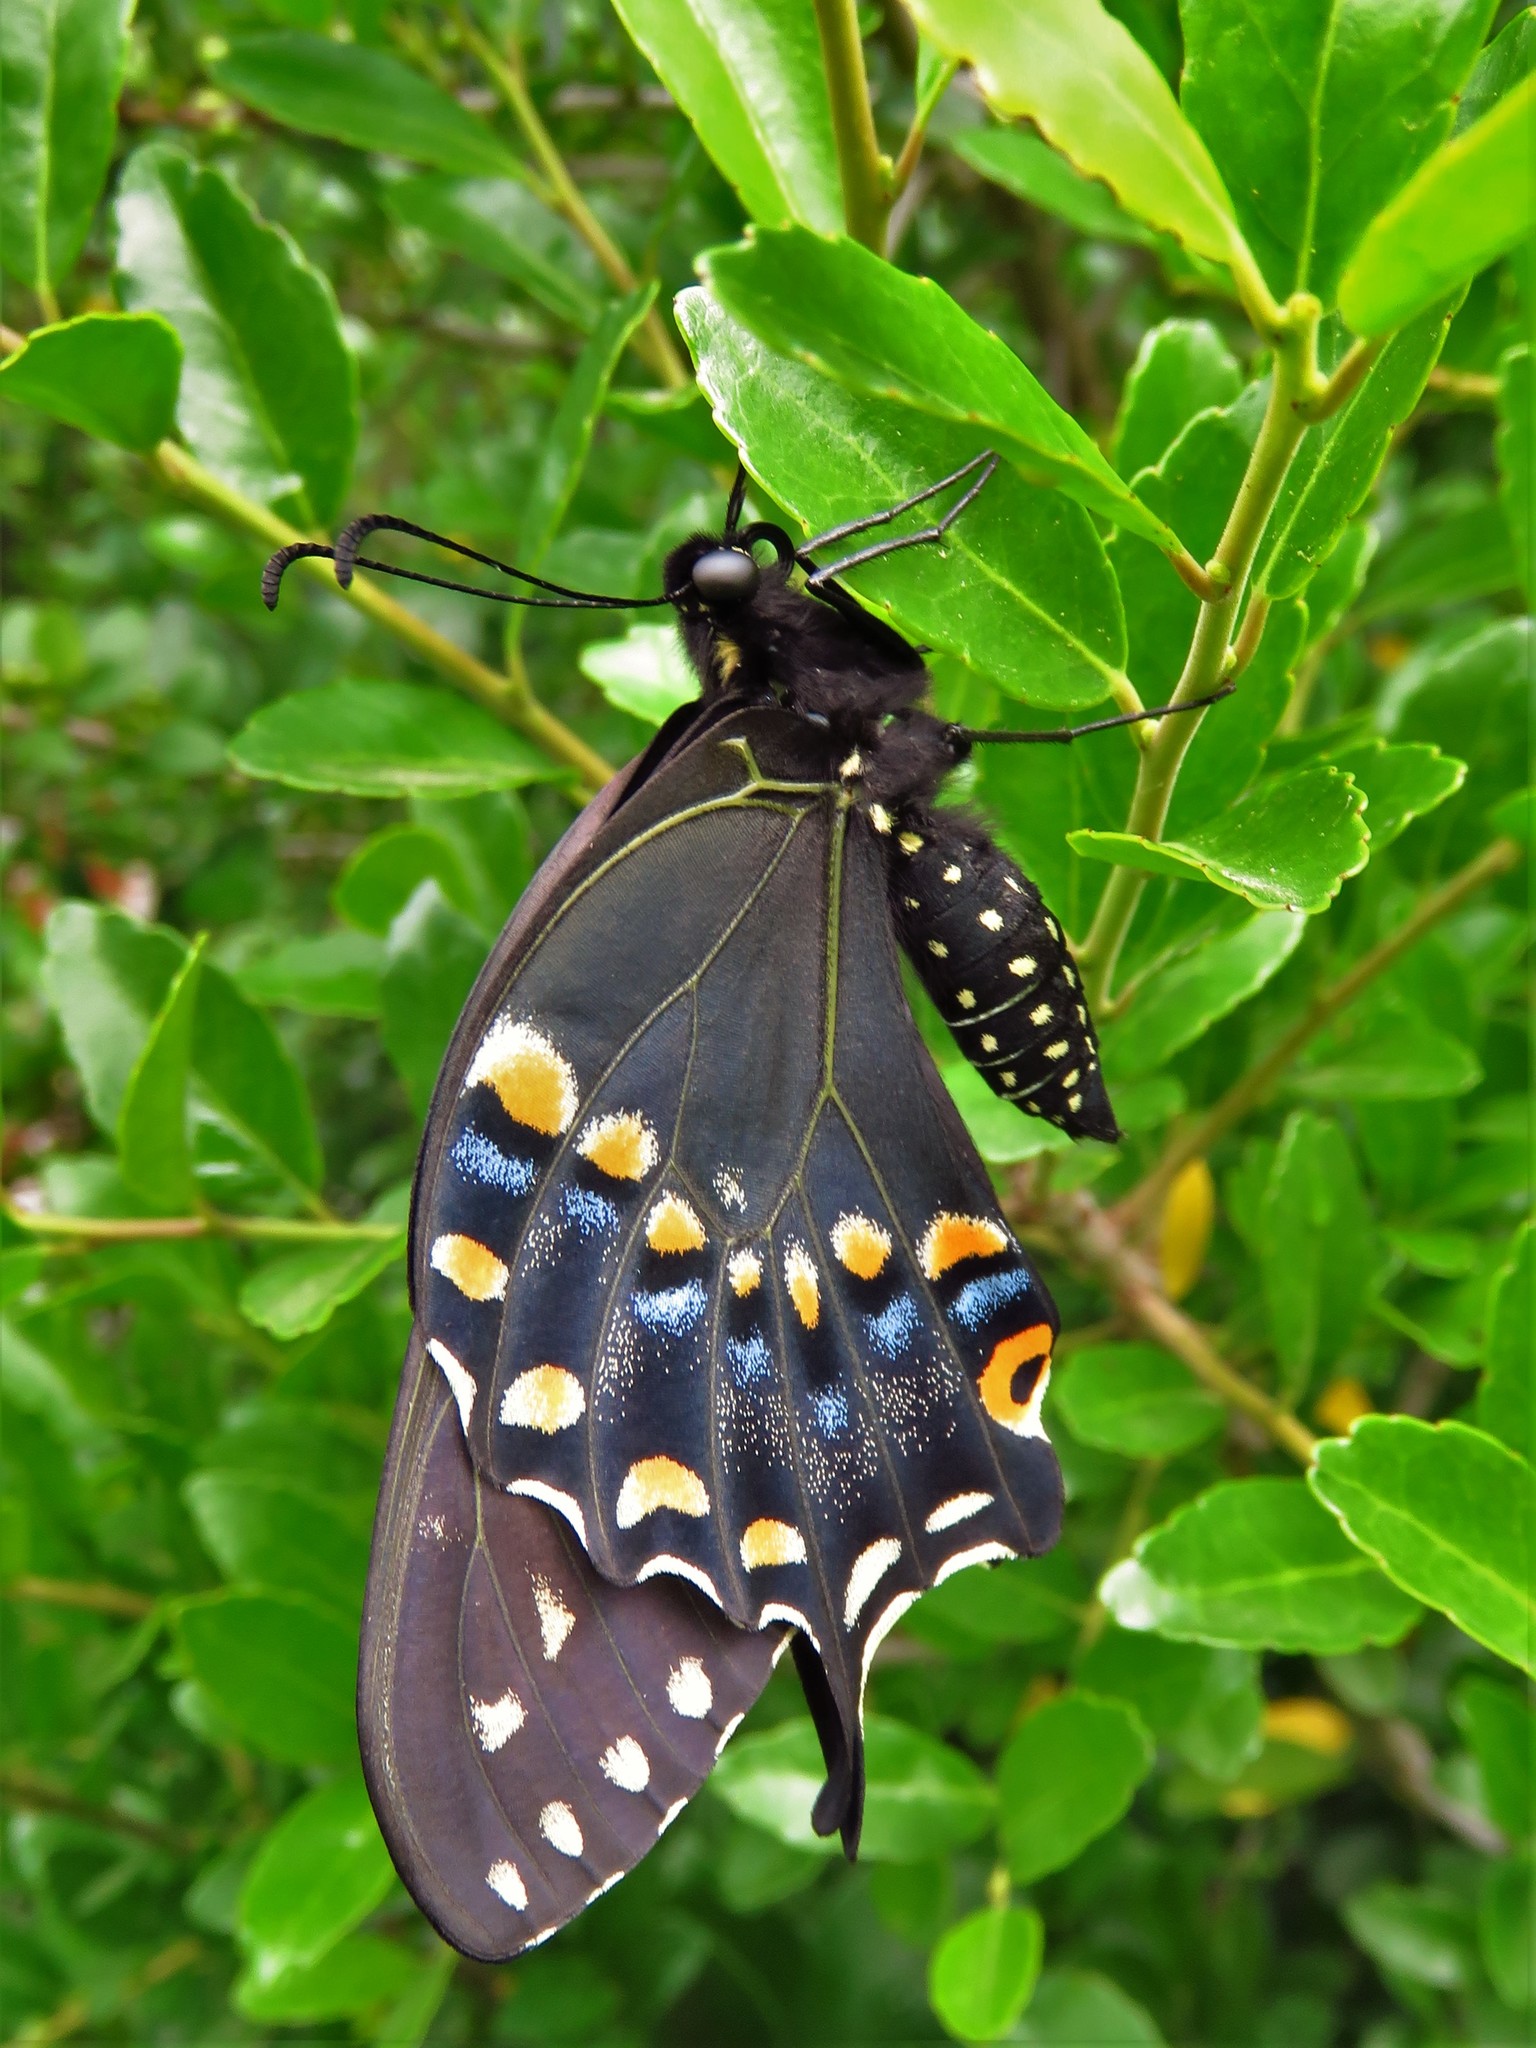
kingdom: Animalia
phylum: Arthropoda
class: Insecta
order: Lepidoptera
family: Papilionidae
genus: Papilio
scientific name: Papilio polyxenes
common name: Black swallowtail
